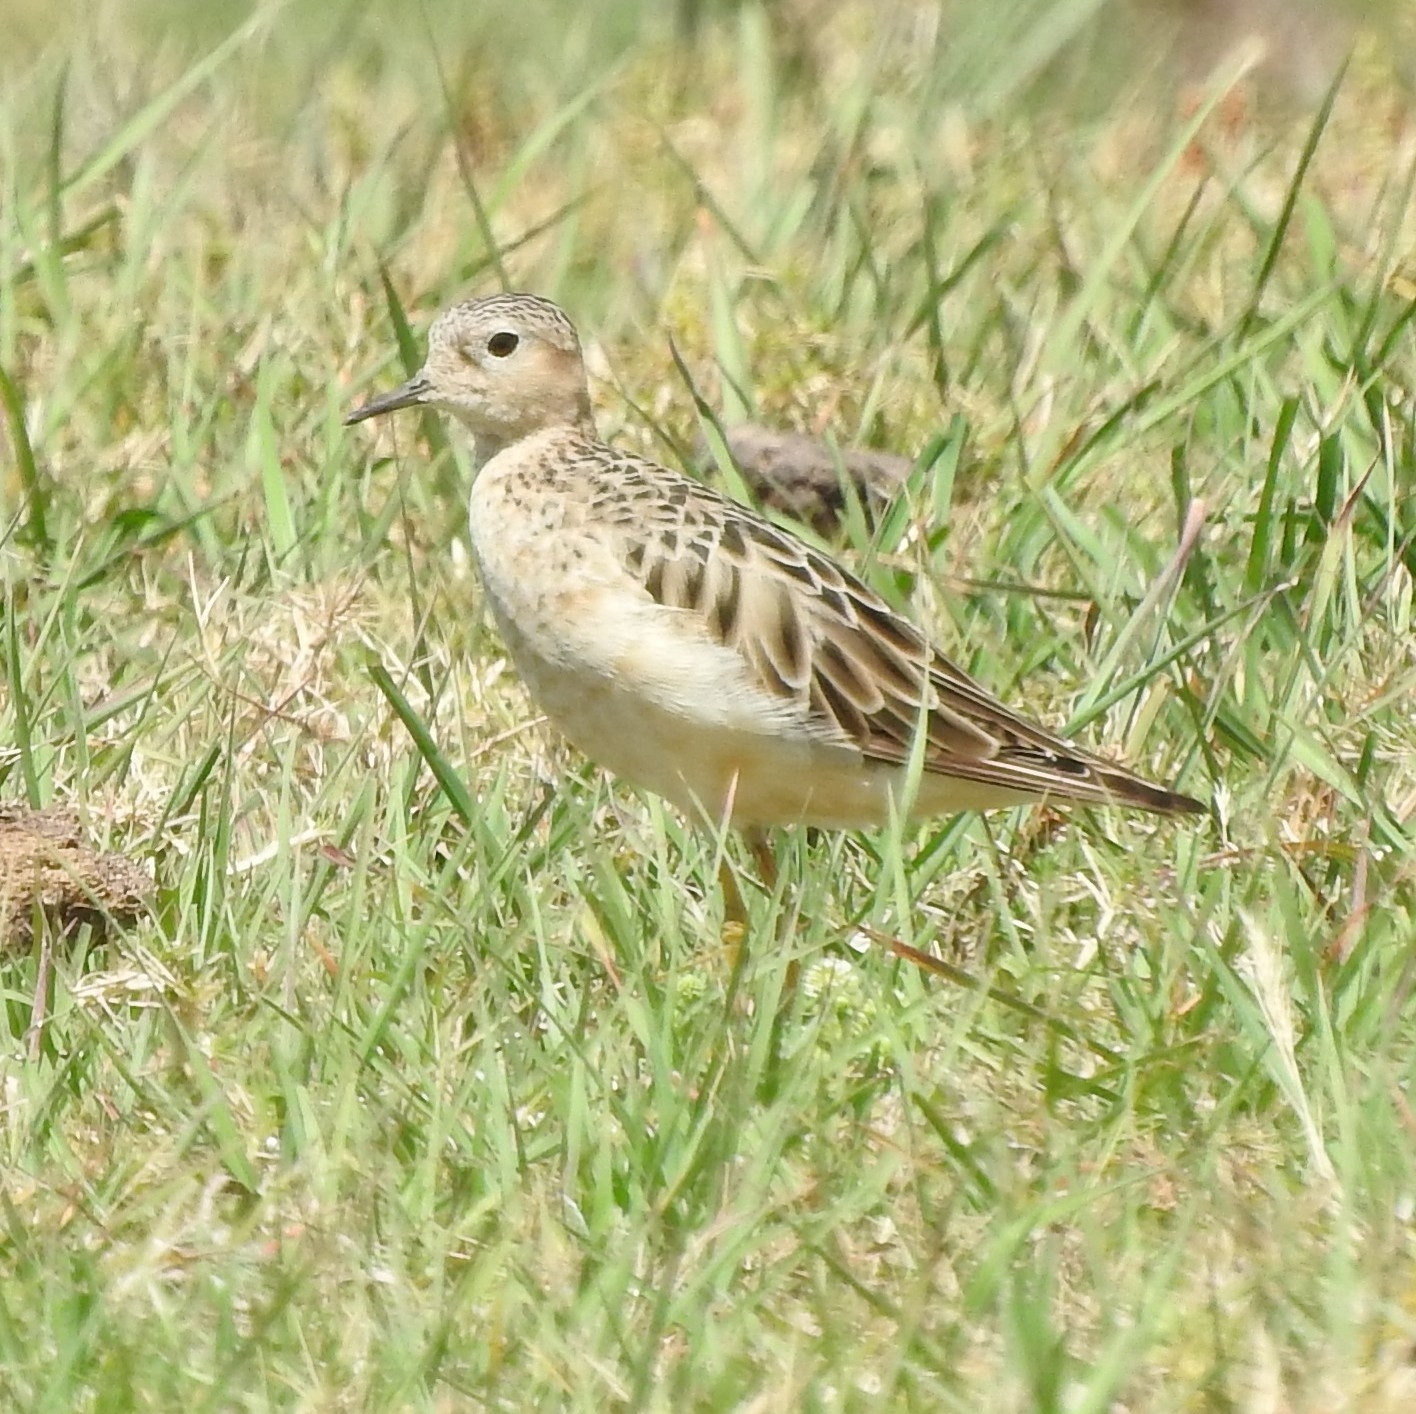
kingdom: Animalia
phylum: Chordata
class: Aves
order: Charadriiformes
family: Scolopacidae
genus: Calidris
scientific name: Calidris subruficollis
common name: Buff-breasted sandpiper
